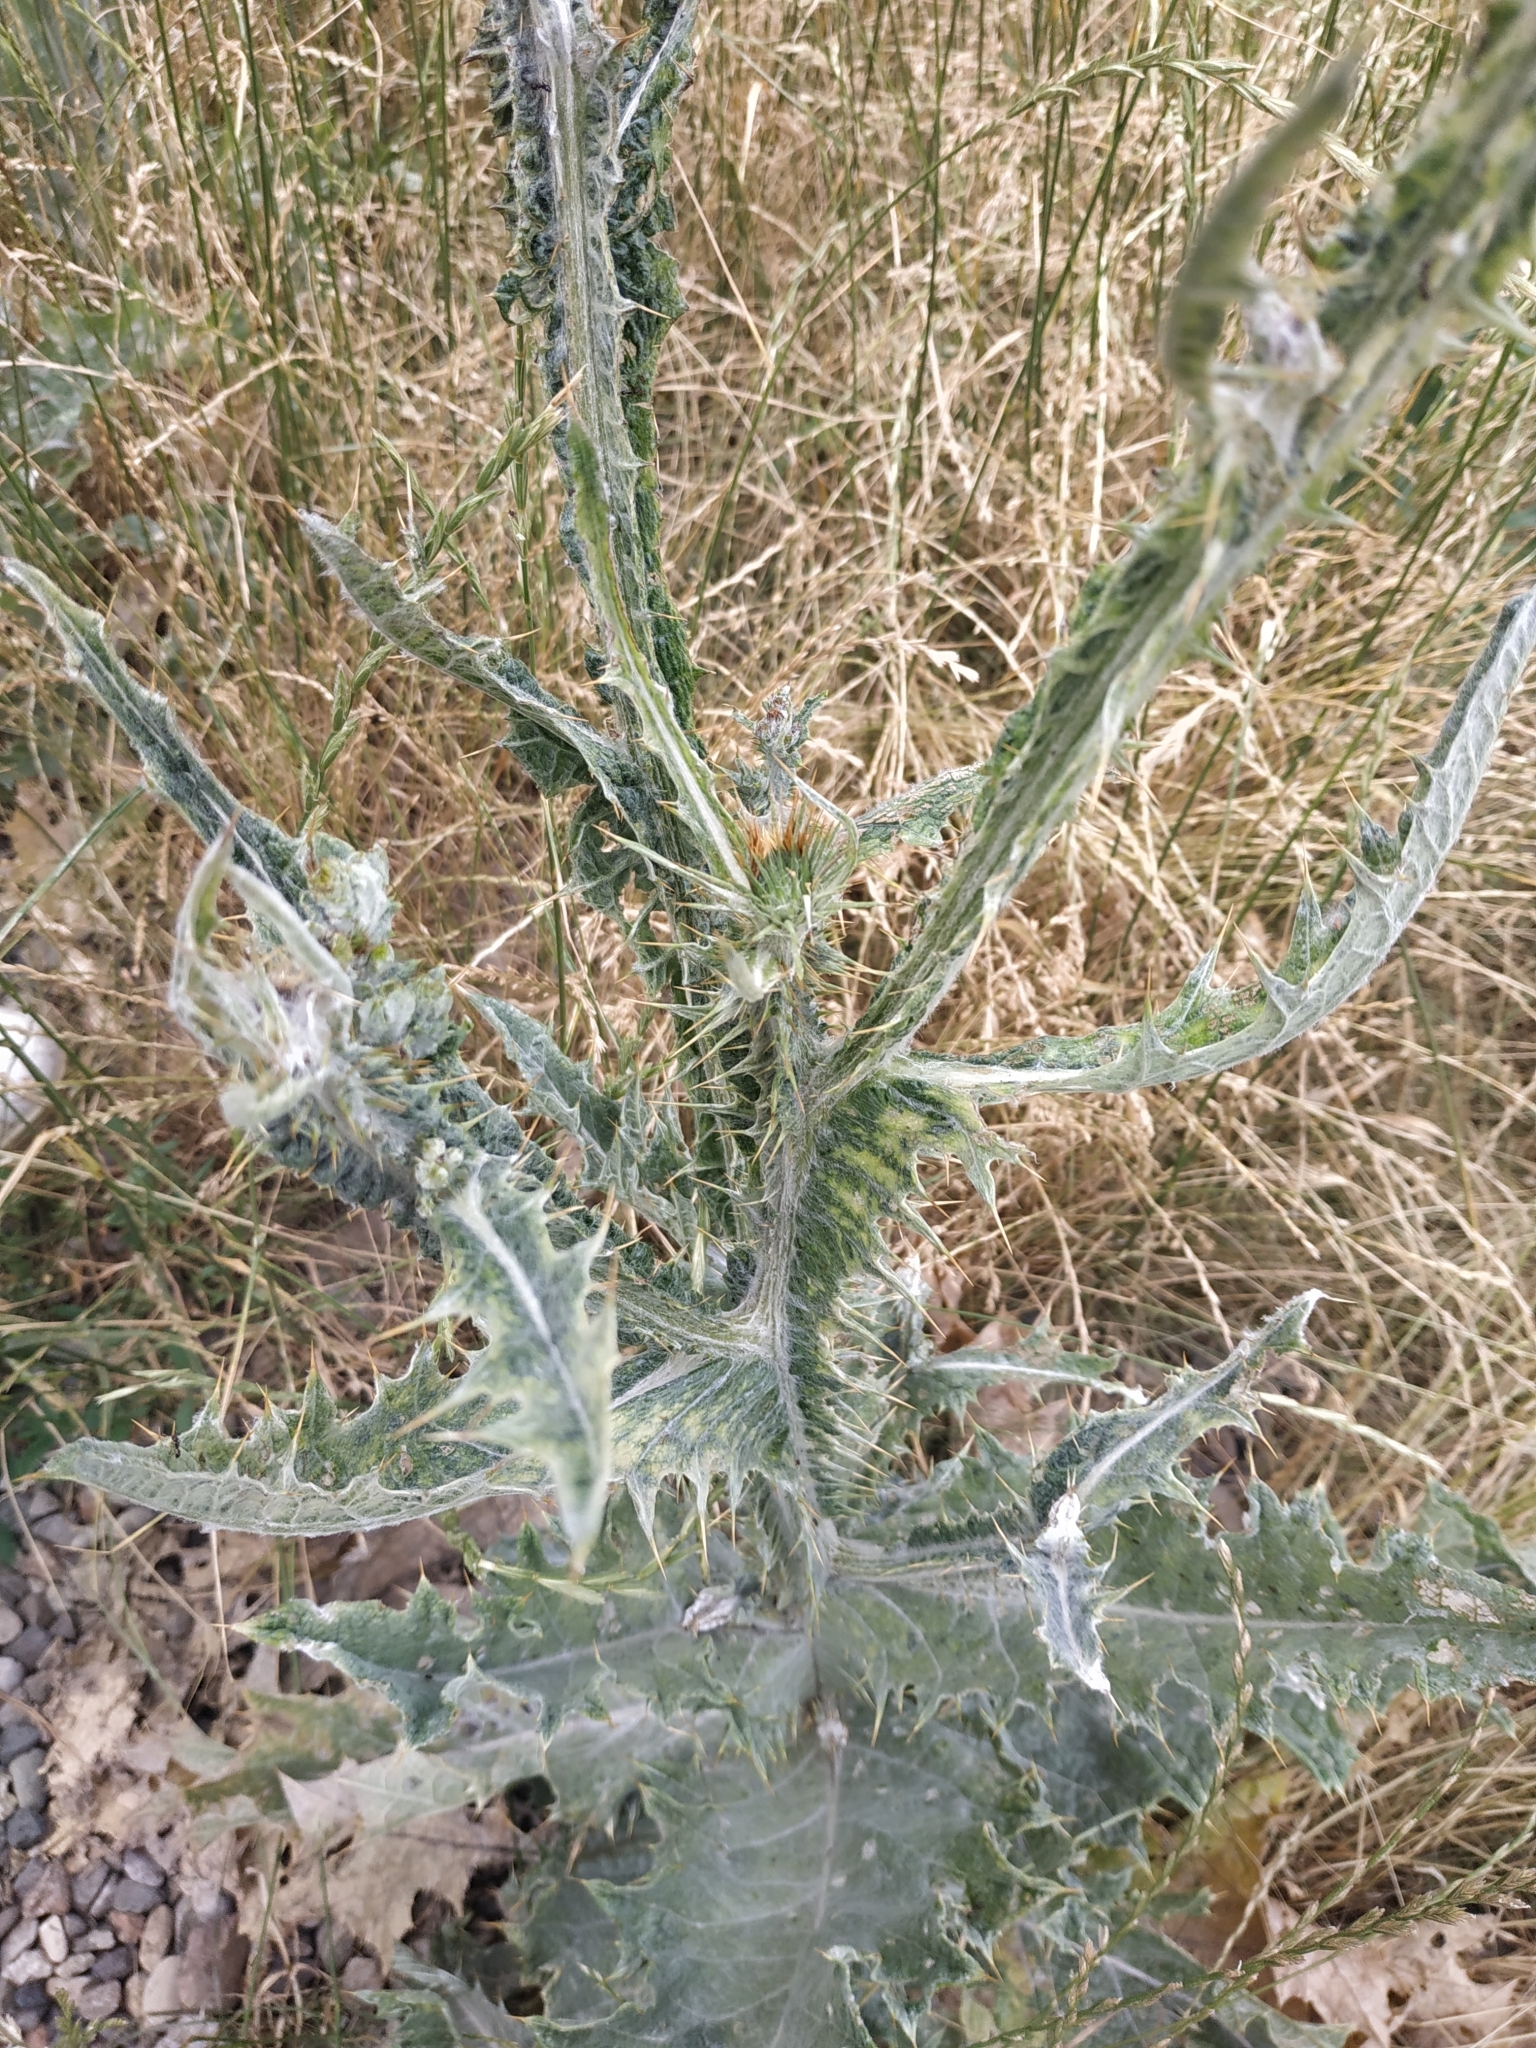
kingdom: Plantae
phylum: Tracheophyta
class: Magnoliopsida
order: Asterales
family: Asteraceae
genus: Onopordum
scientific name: Onopordum acanthium
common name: Scotch thistle
